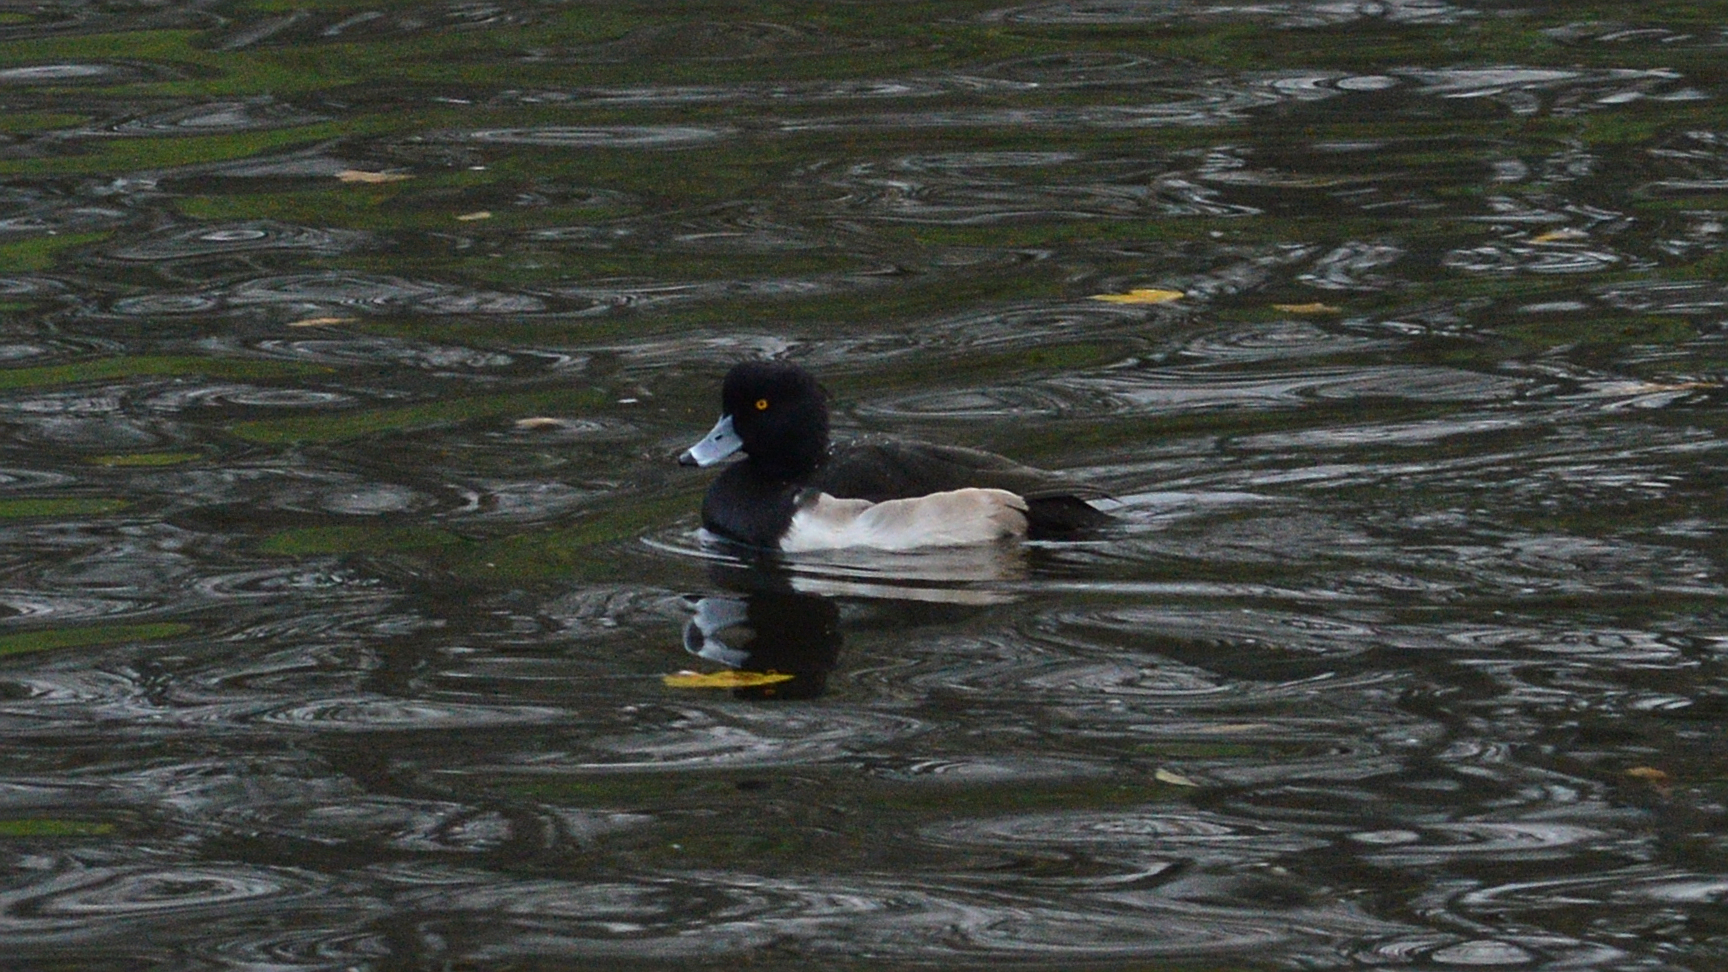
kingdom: Animalia
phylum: Chordata
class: Aves
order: Anseriformes
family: Anatidae
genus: Aythya
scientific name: Aythya fuligula
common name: Tufted duck
